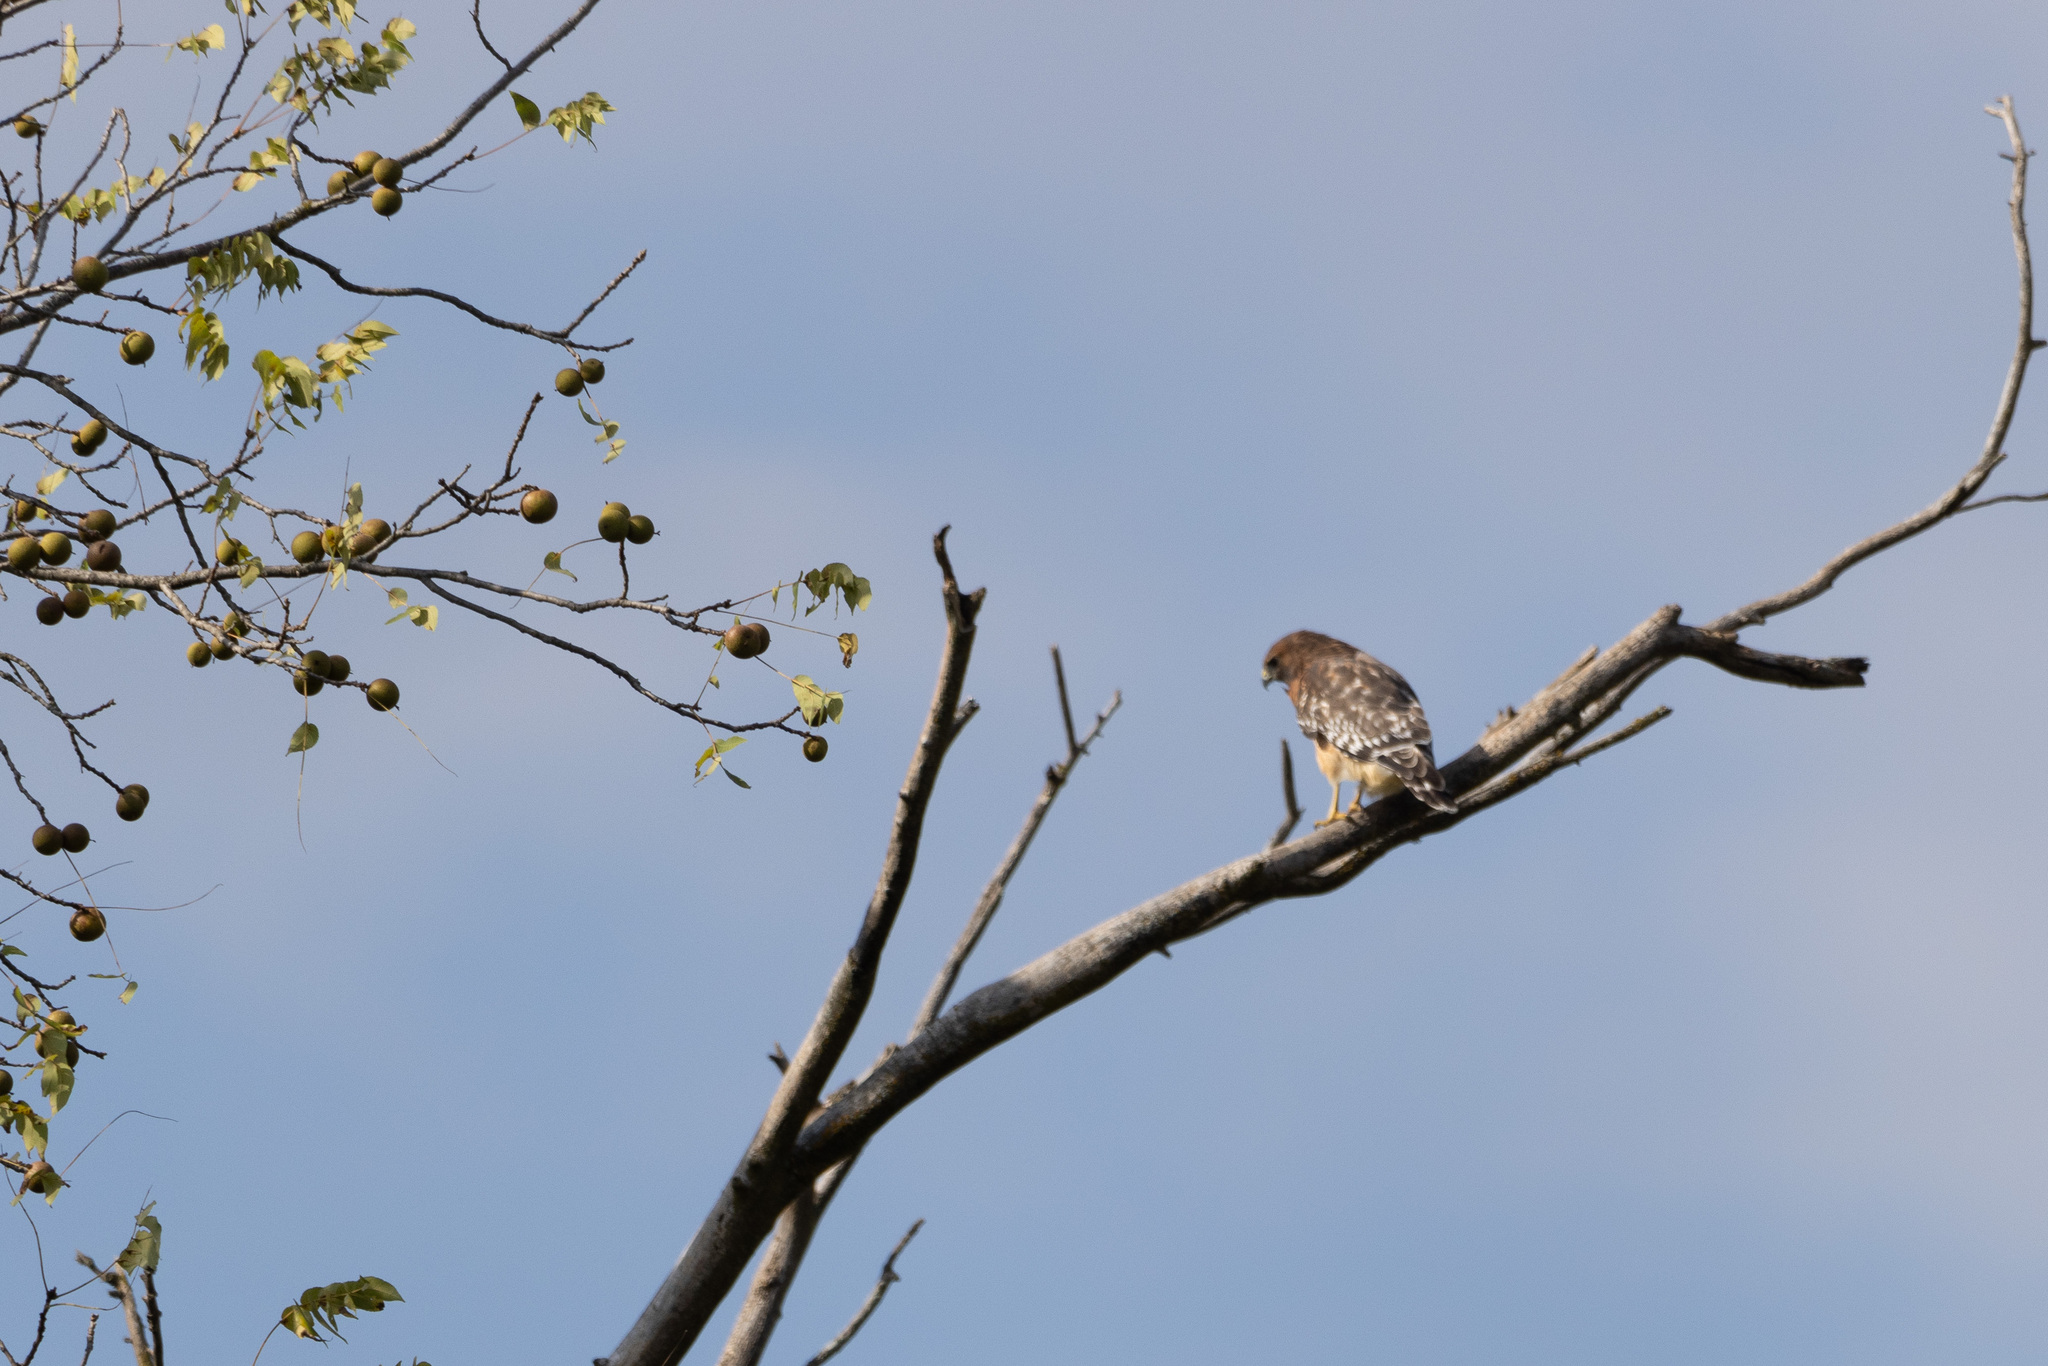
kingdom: Animalia
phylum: Chordata
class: Aves
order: Accipitriformes
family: Accipitridae
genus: Buteo
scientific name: Buteo lineatus
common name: Red-shouldered hawk
